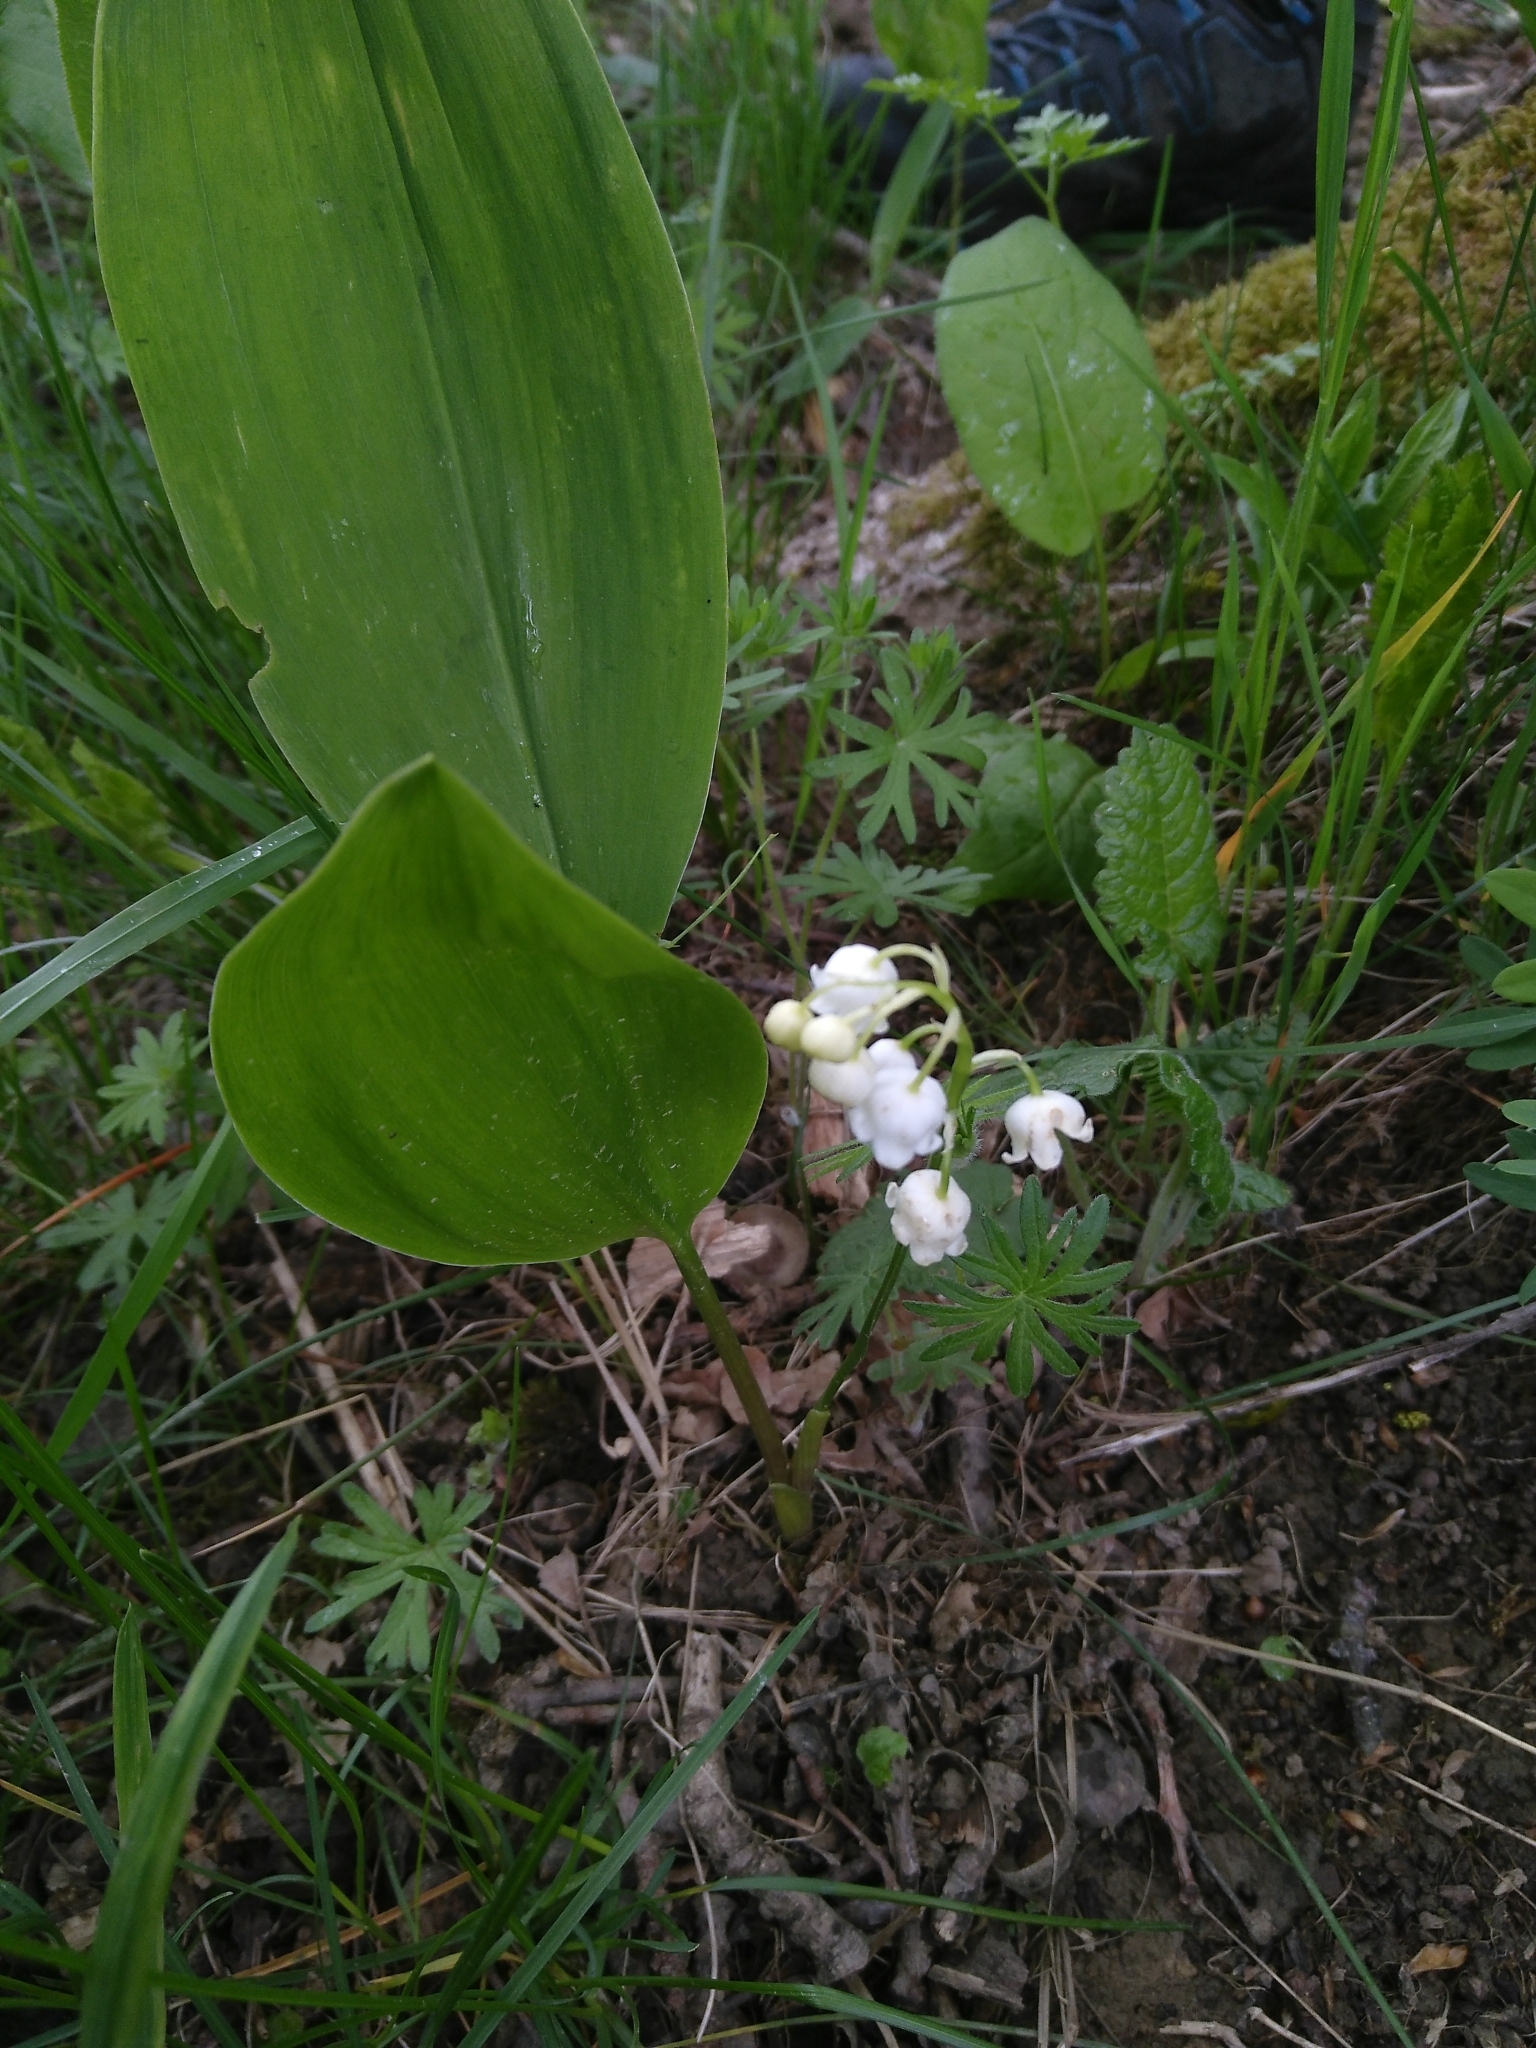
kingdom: Plantae
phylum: Tracheophyta
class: Liliopsida
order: Asparagales
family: Asparagaceae
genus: Convallaria
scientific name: Convallaria majalis
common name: Lily-of-the-valley
